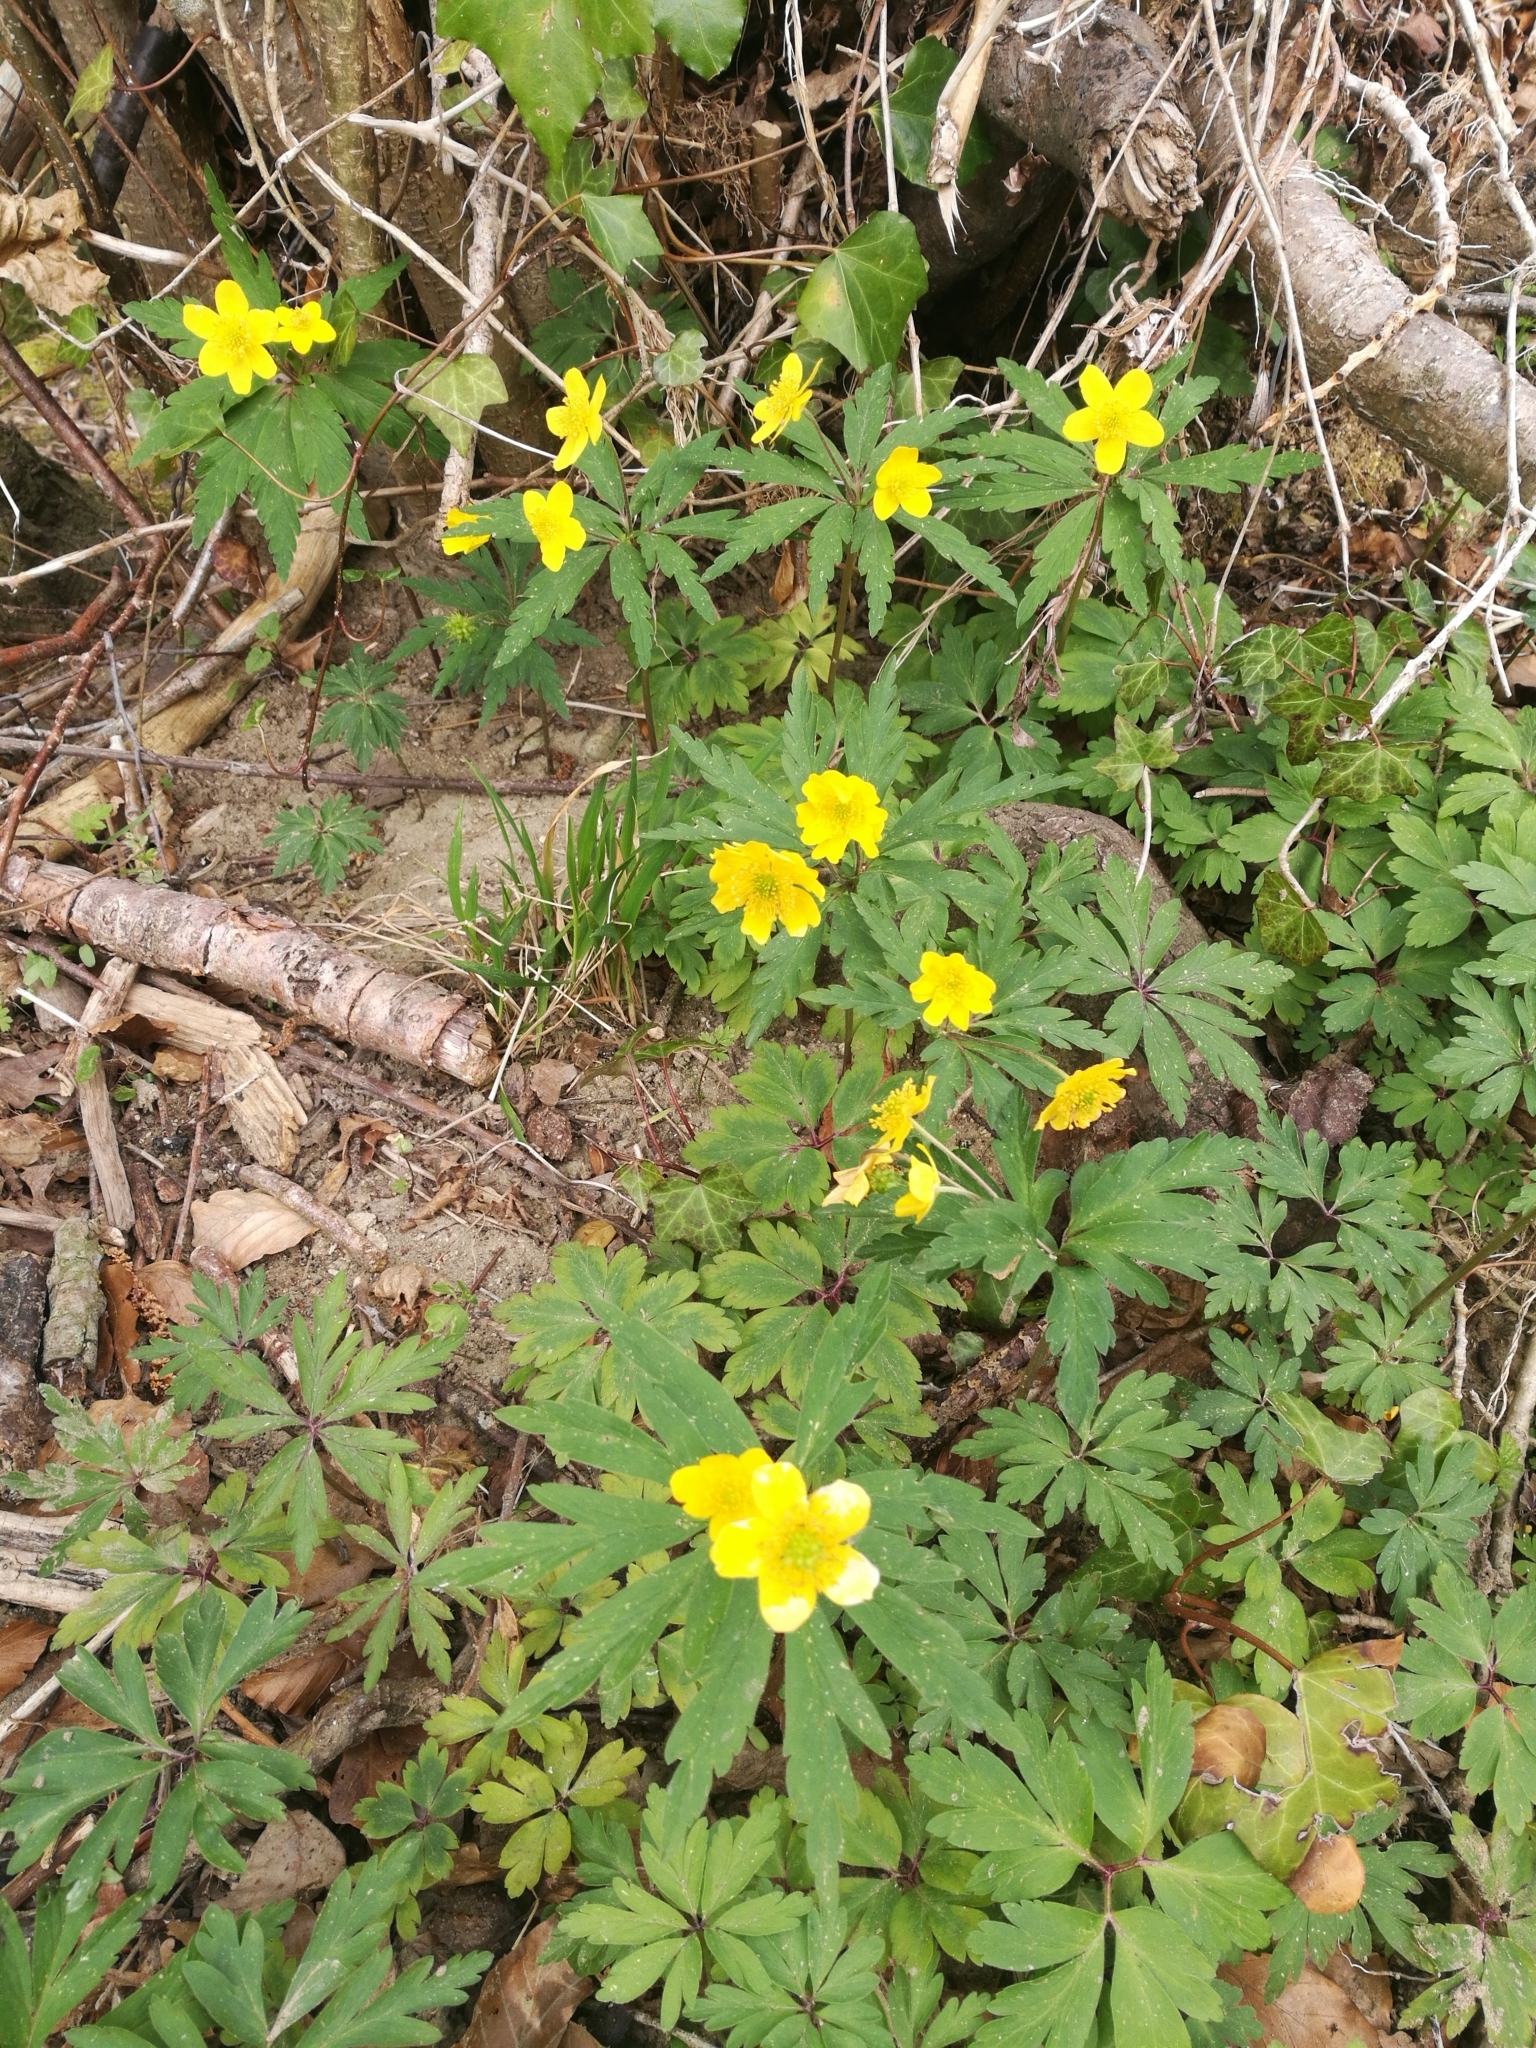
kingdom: Plantae
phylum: Tracheophyta
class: Magnoliopsida
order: Ranunculales
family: Ranunculaceae
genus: Anemone
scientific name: Anemone ranunculoides
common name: Yellow anemone
